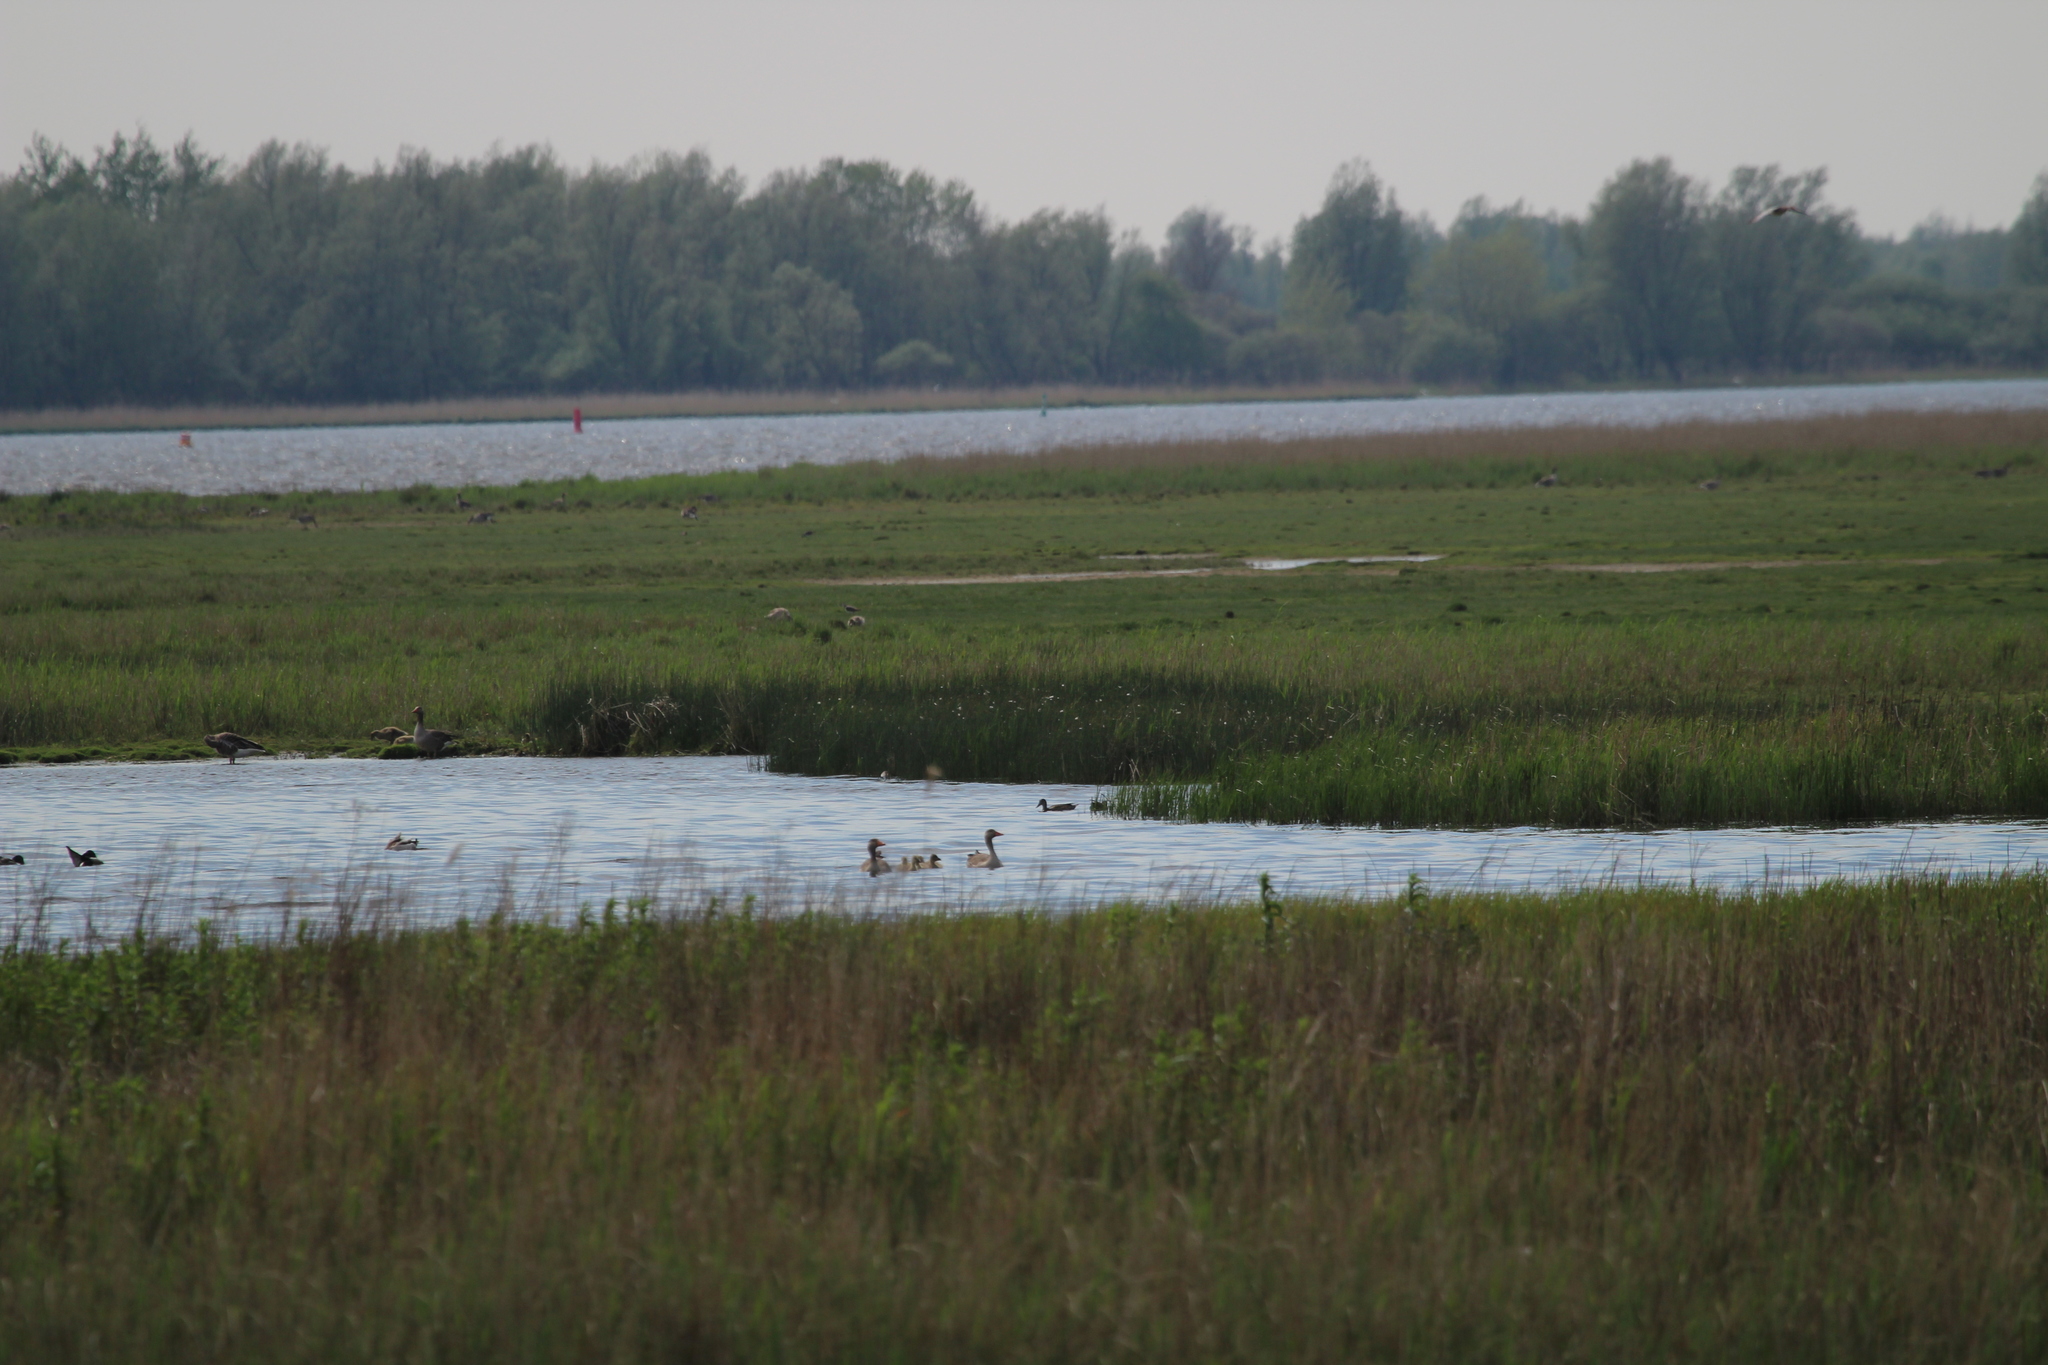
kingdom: Animalia
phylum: Chordata
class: Aves
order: Anseriformes
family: Anatidae
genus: Anser
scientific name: Anser anser
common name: Greylag goose
